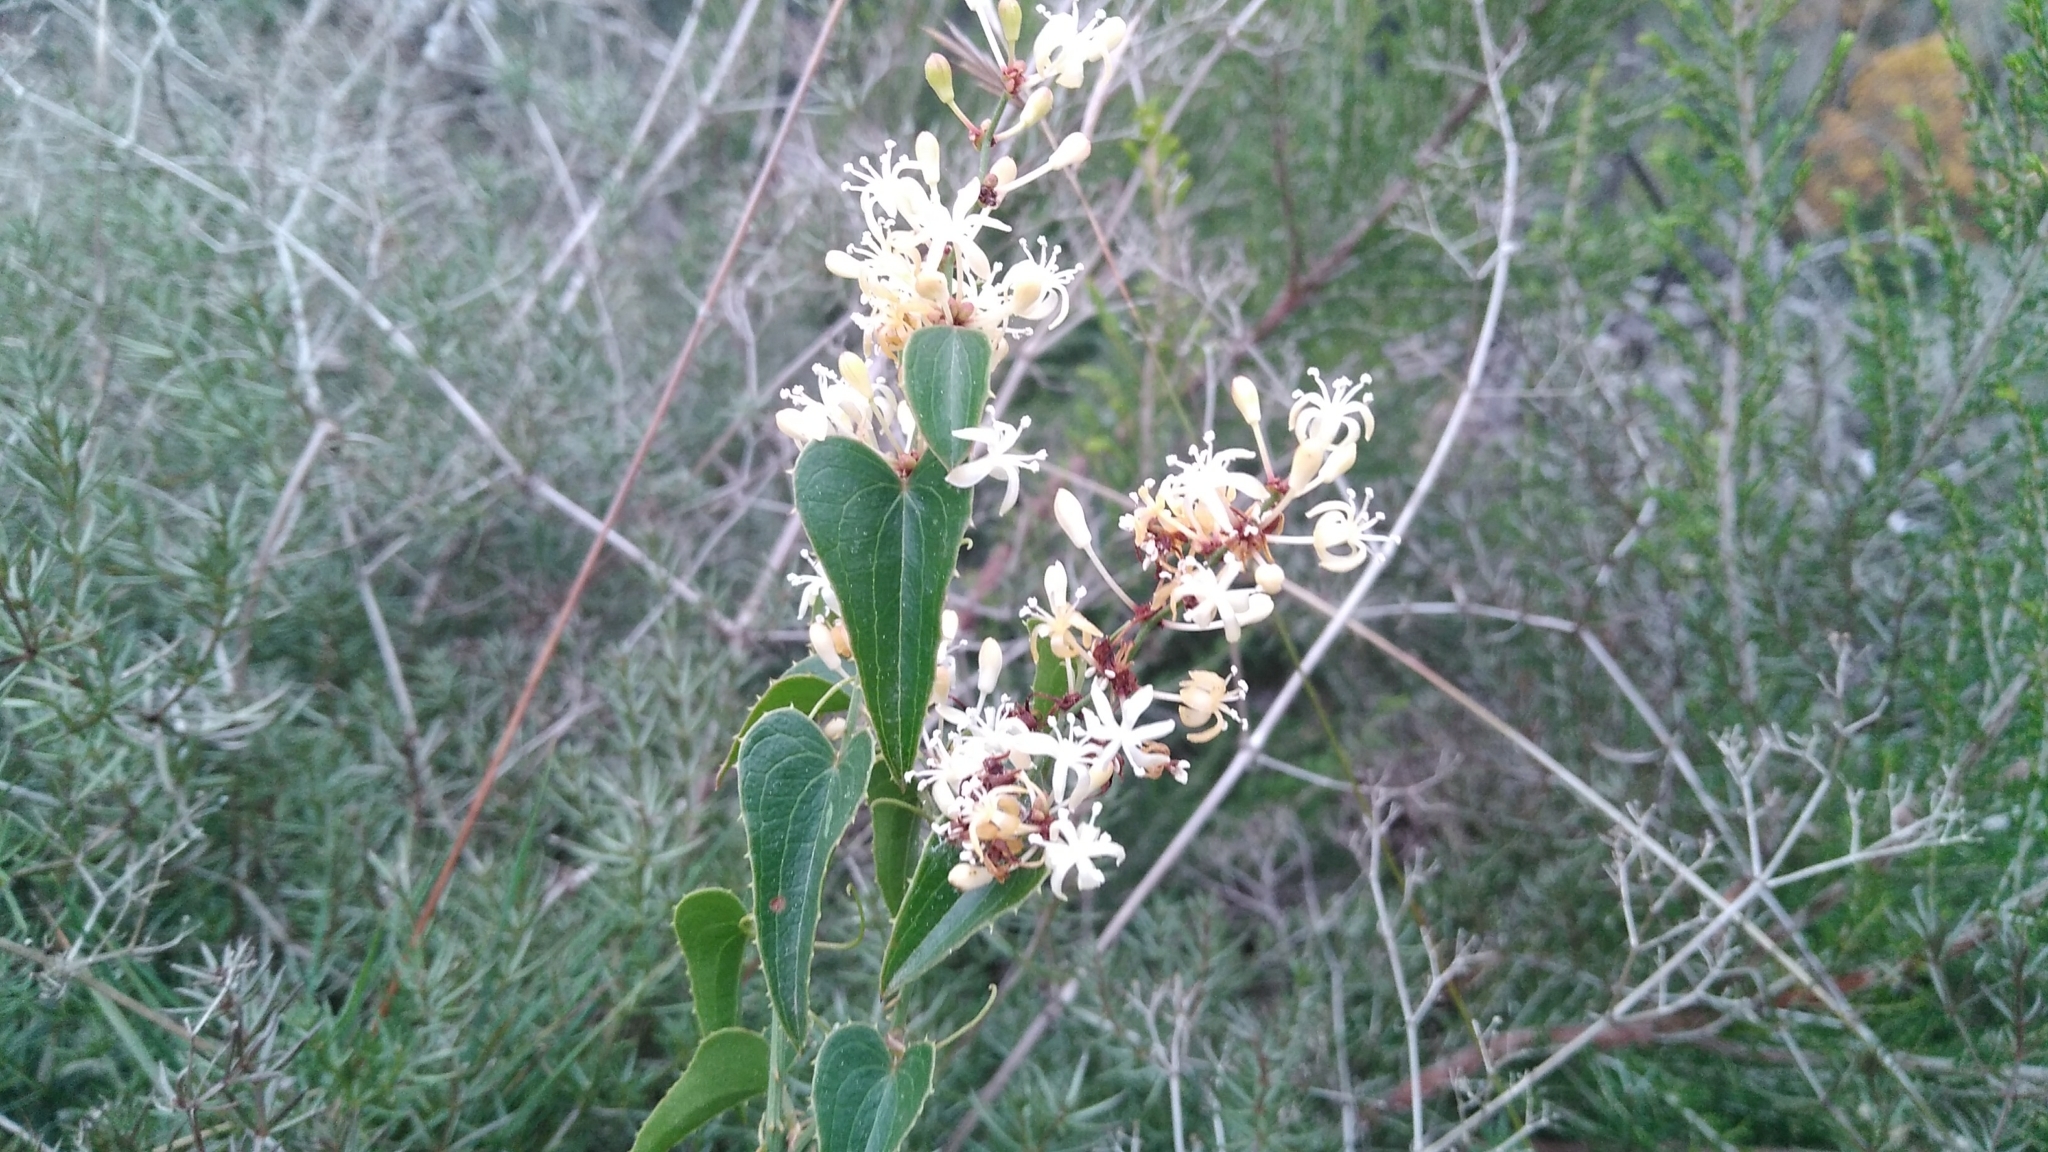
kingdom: Plantae
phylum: Tracheophyta
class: Liliopsida
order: Liliales
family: Smilacaceae
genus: Smilax
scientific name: Smilax aspera
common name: Common smilax
